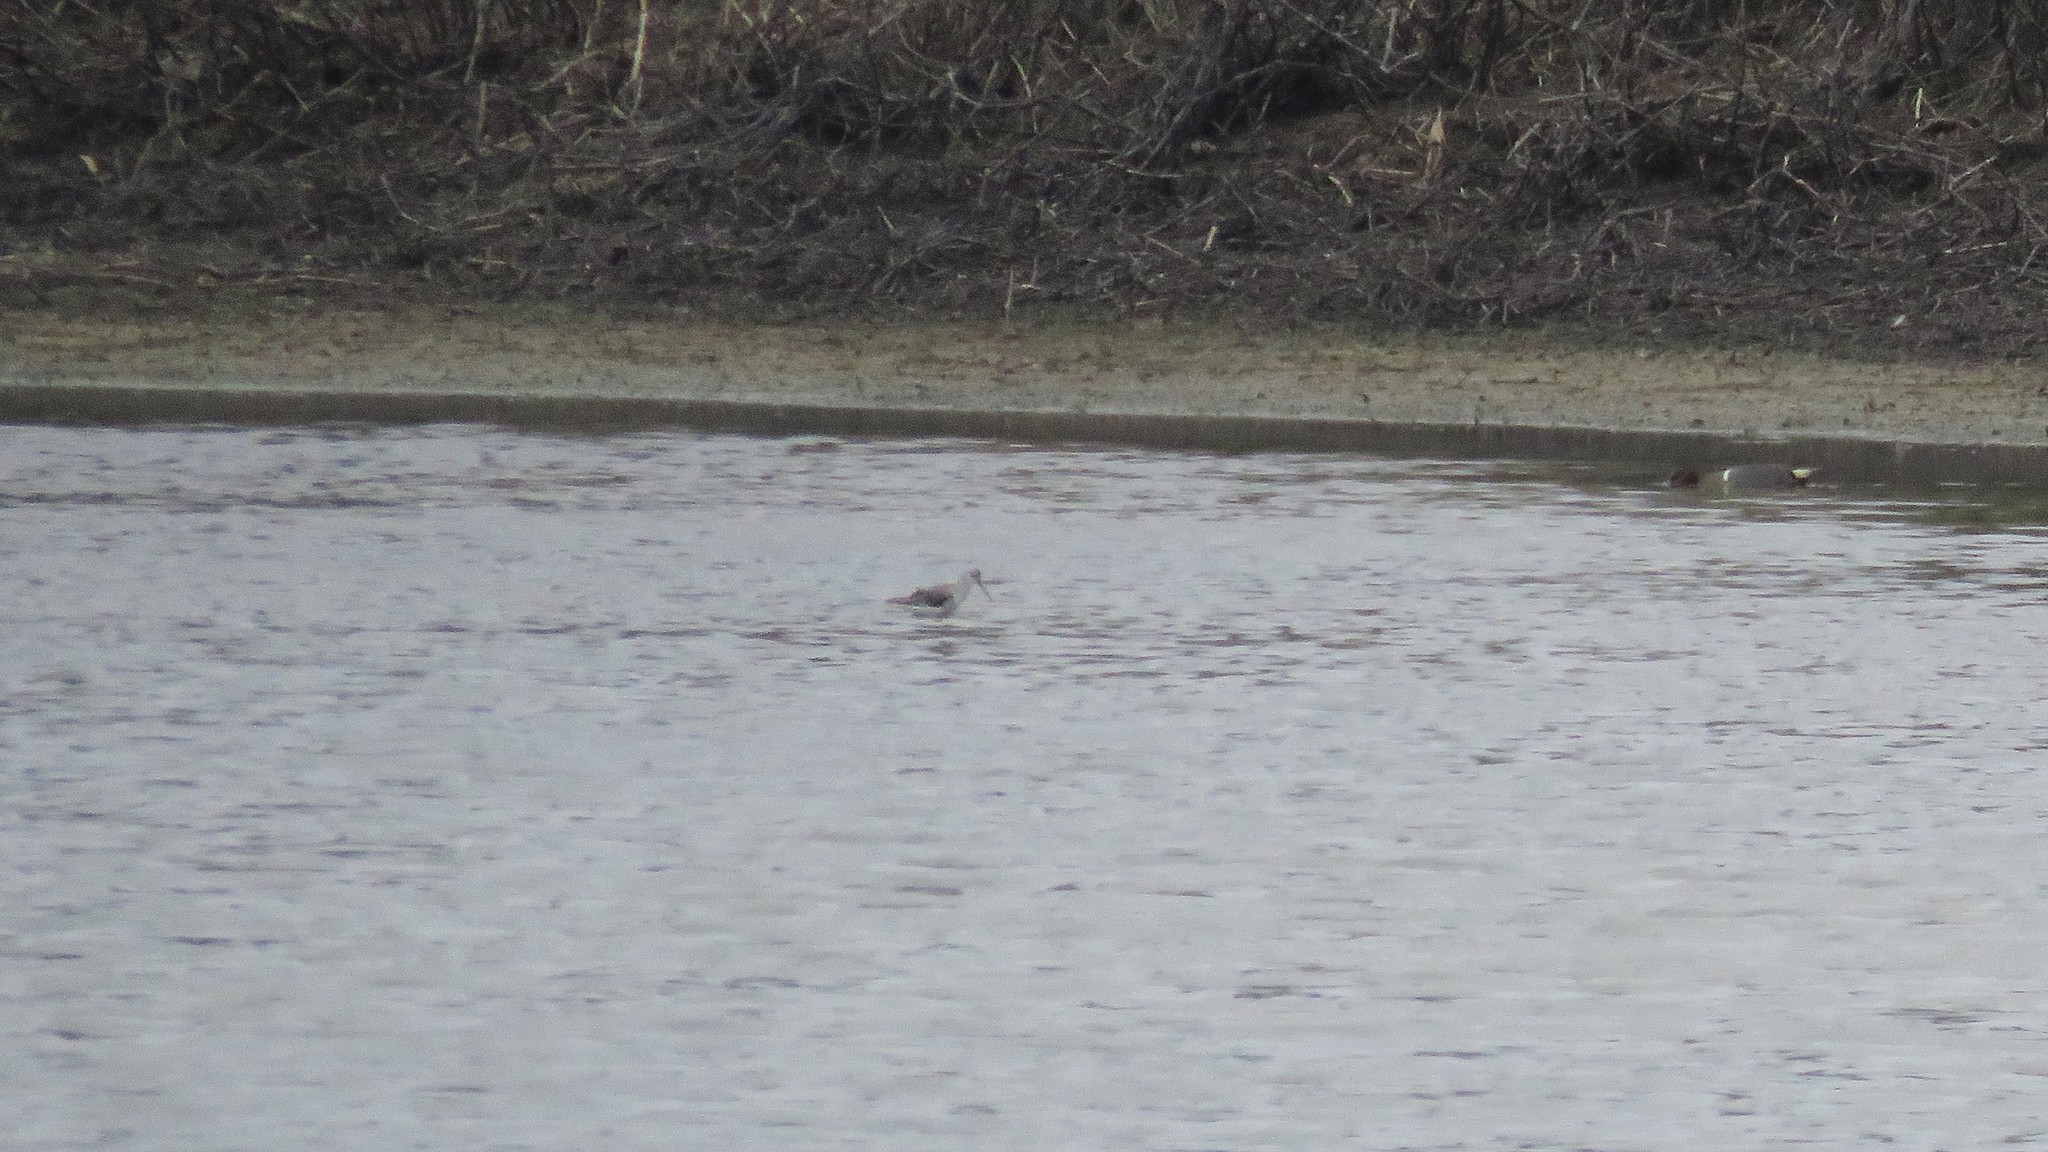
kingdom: Animalia
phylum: Chordata
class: Aves
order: Charadriiformes
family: Scolopacidae
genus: Tringa
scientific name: Tringa stagnatilis
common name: Marsh sandpiper
